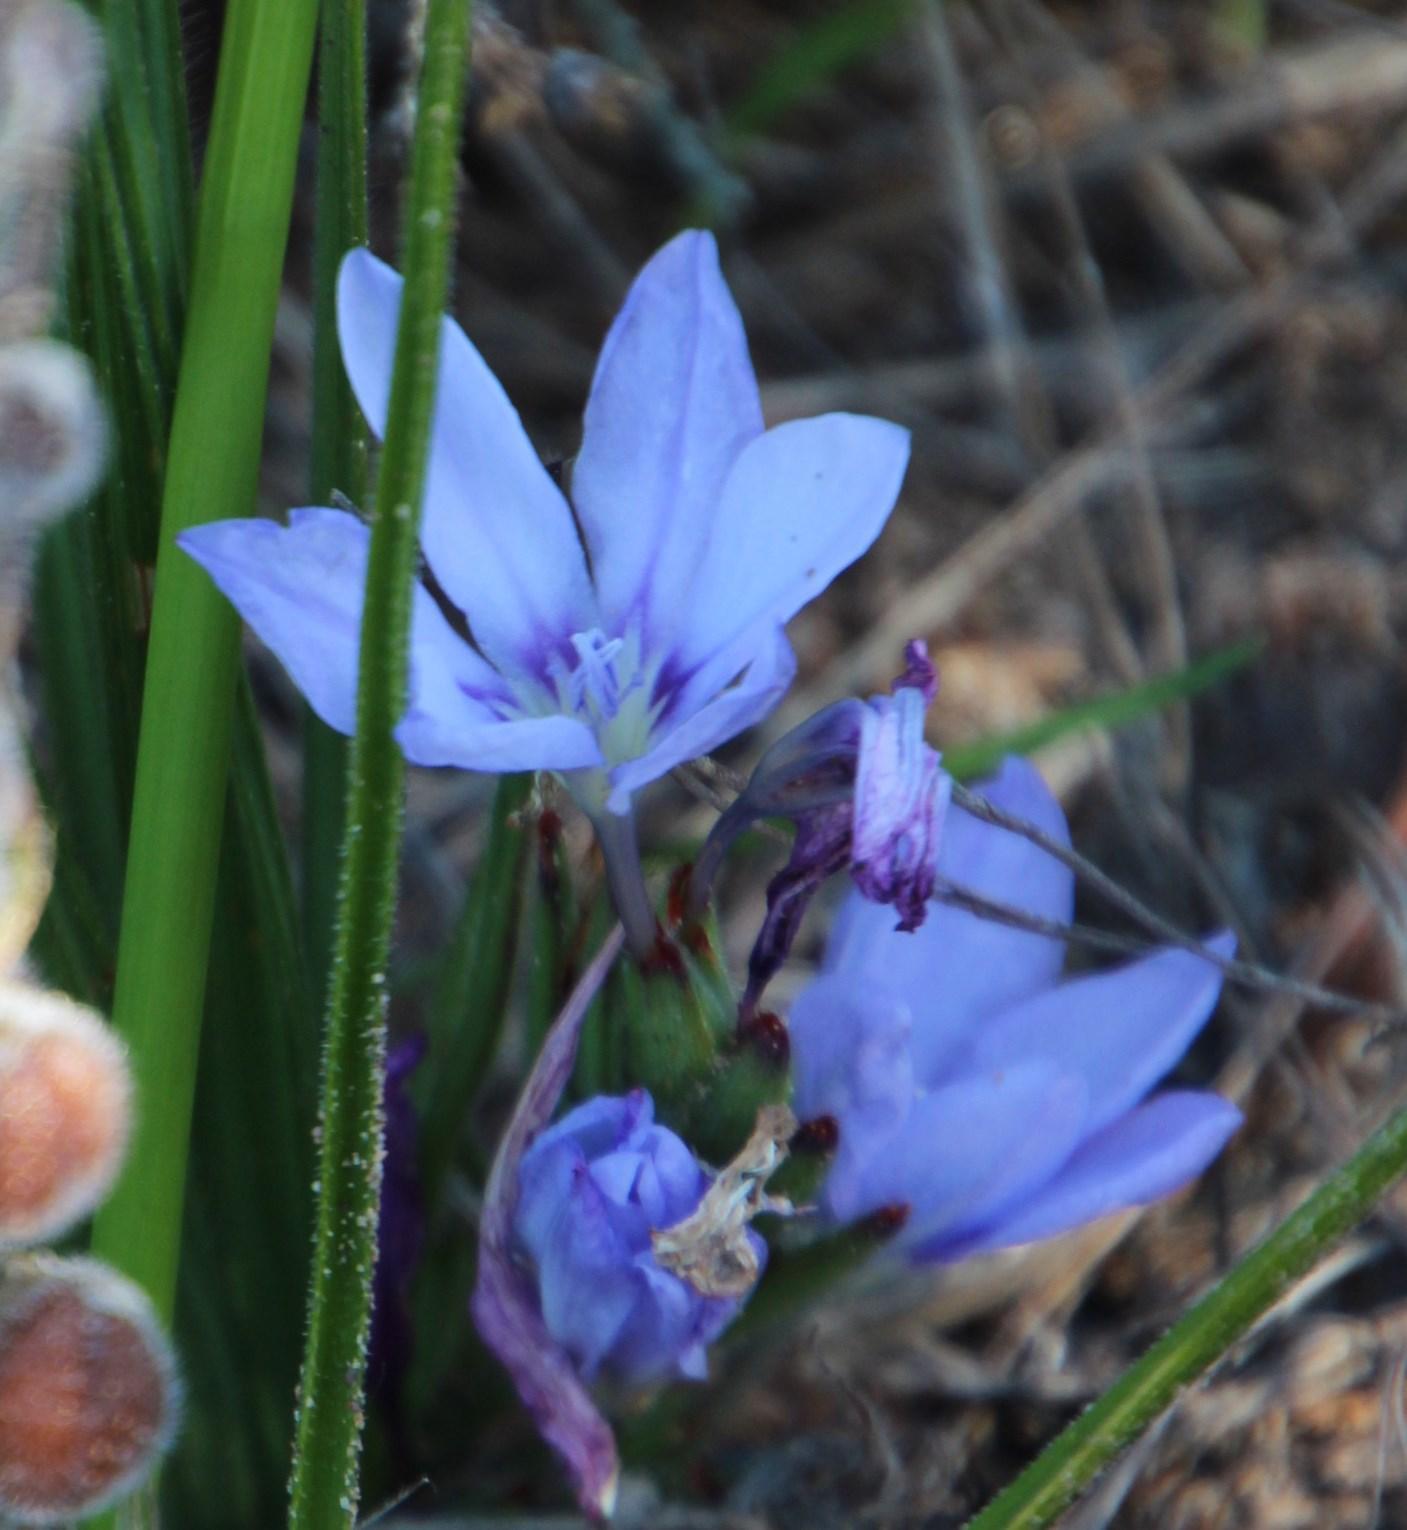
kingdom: Plantae
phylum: Tracheophyta
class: Liliopsida
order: Asparagales
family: Iridaceae
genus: Babiana
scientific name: Babiana villosula
